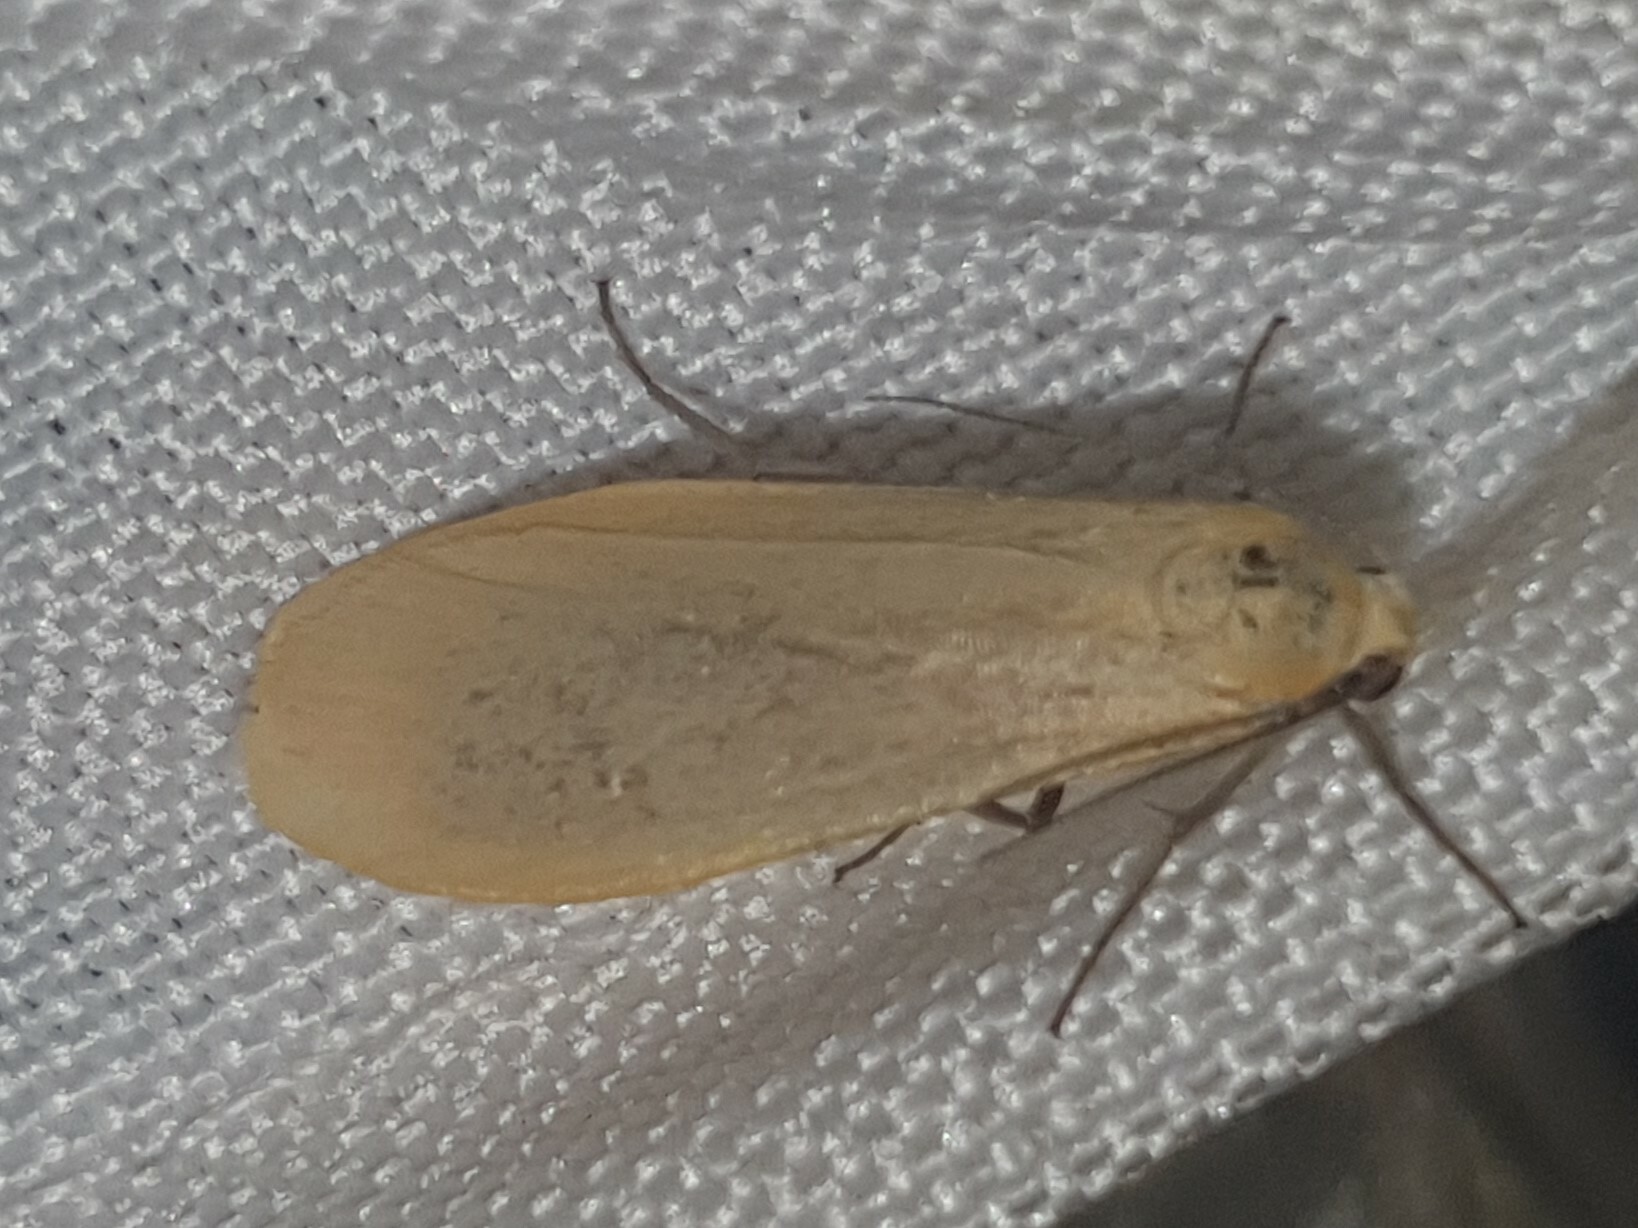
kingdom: Animalia
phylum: Arthropoda
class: Insecta
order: Lepidoptera
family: Erebidae
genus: Wittia
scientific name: Wittia sororcula
